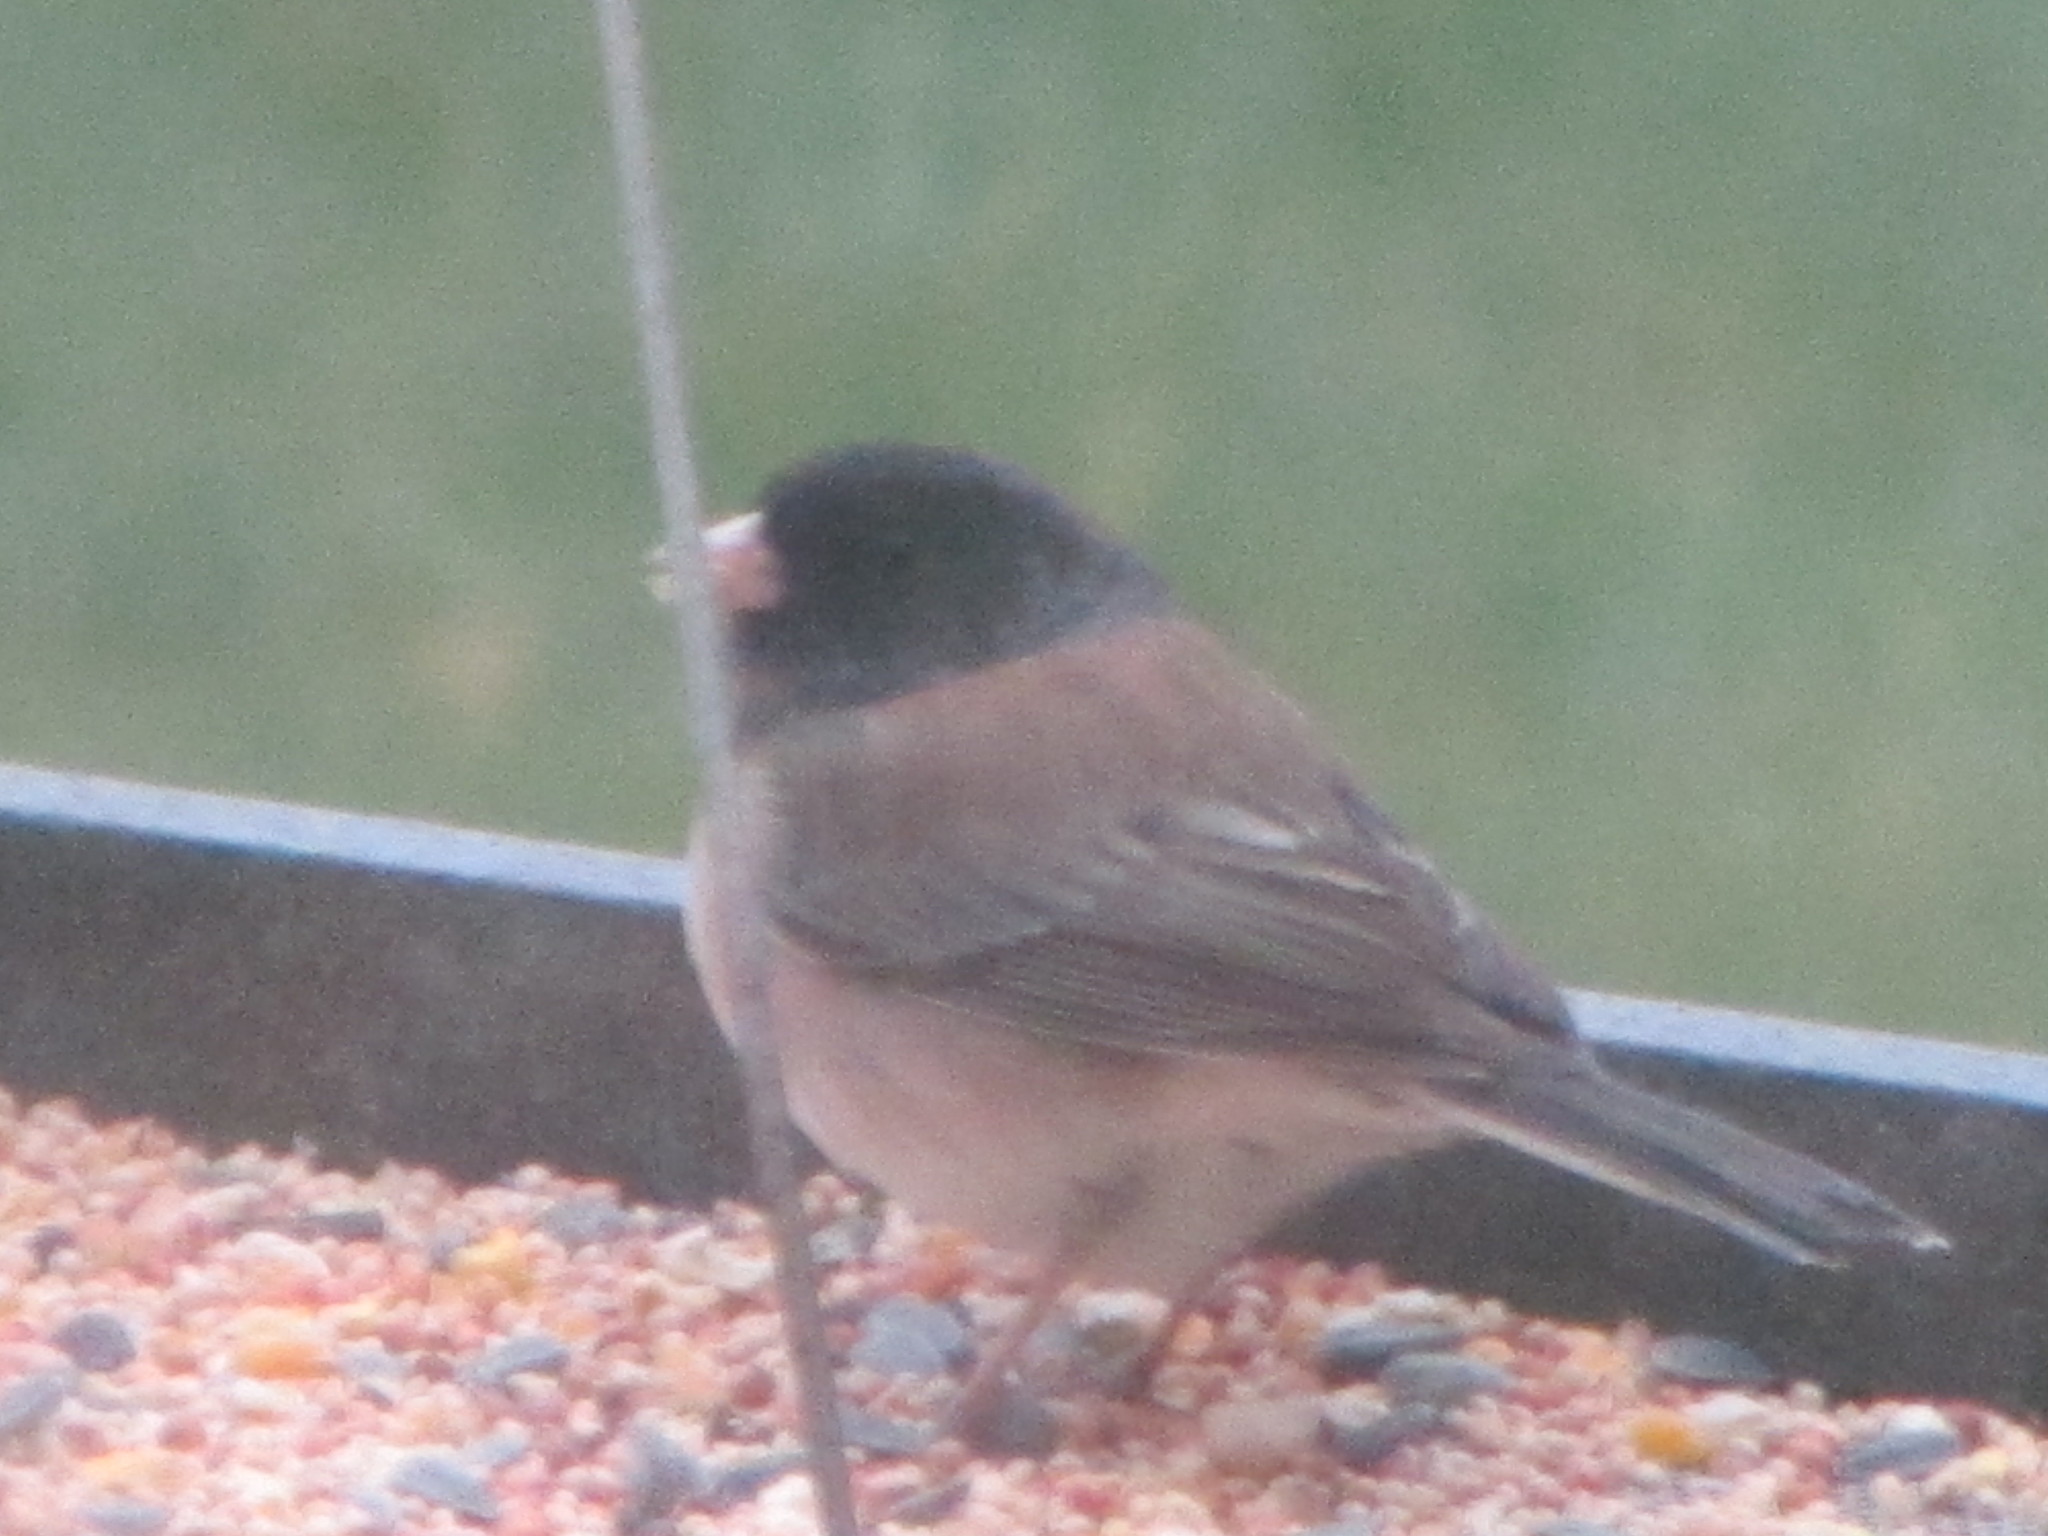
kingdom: Animalia
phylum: Chordata
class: Aves
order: Passeriformes
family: Passerellidae
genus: Junco
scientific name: Junco hyemalis
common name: Dark-eyed junco
